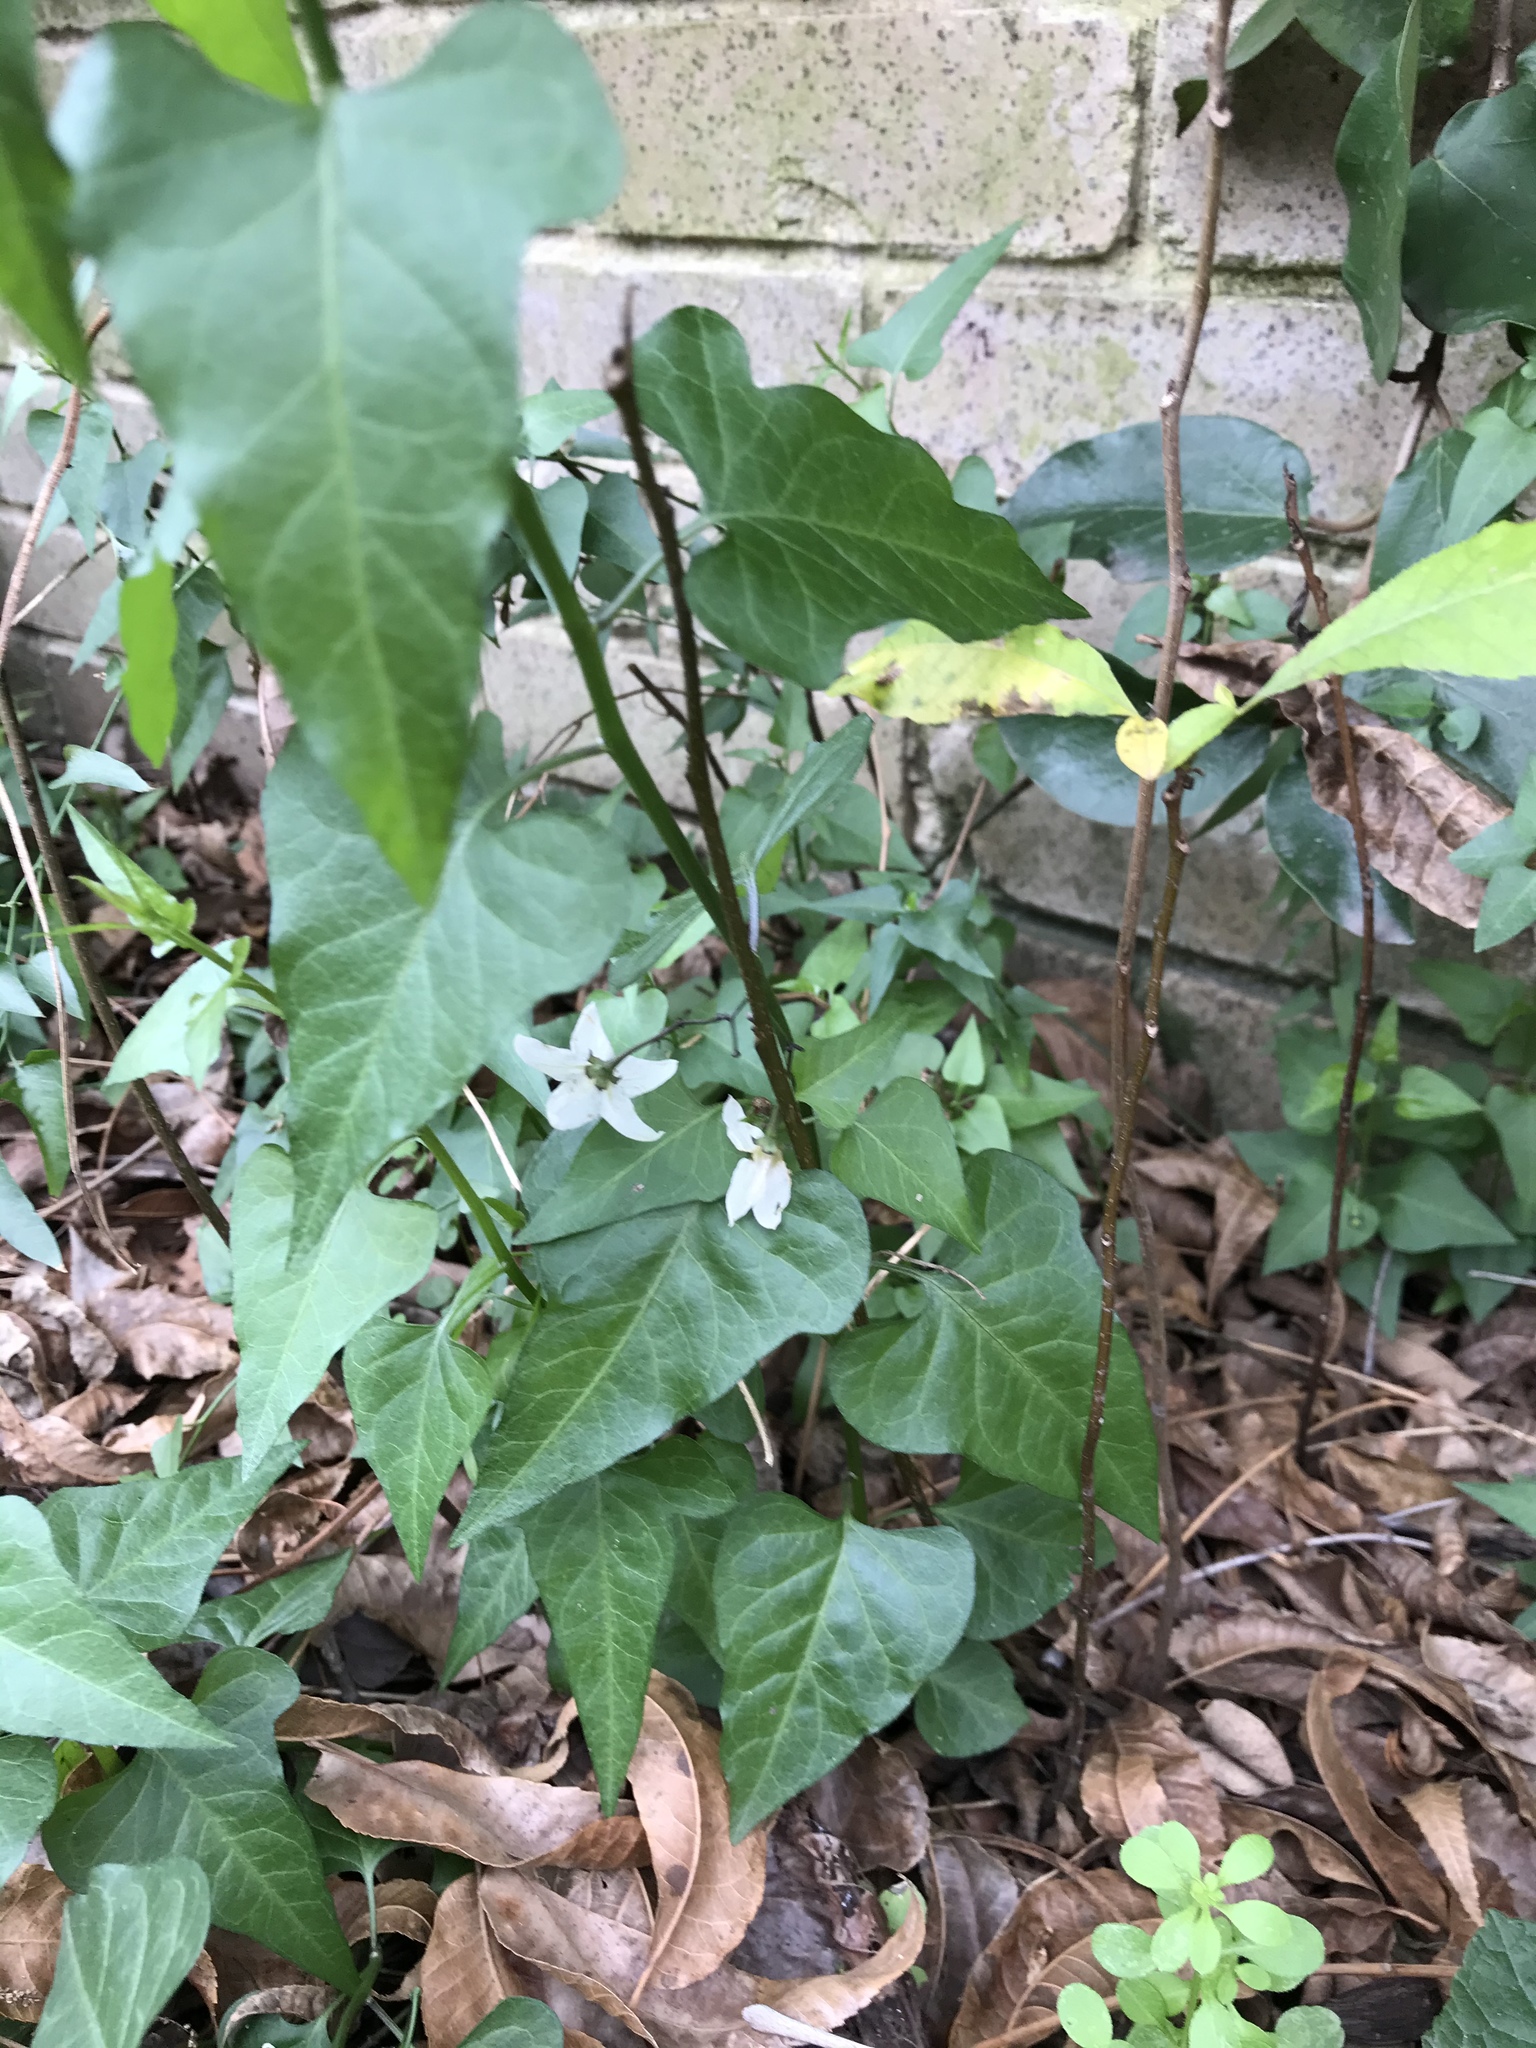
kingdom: Plantae
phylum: Tracheophyta
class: Magnoliopsida
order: Solanales
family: Solanaceae
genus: Solanum
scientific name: Solanum triquetrum
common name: Texas nightshade
